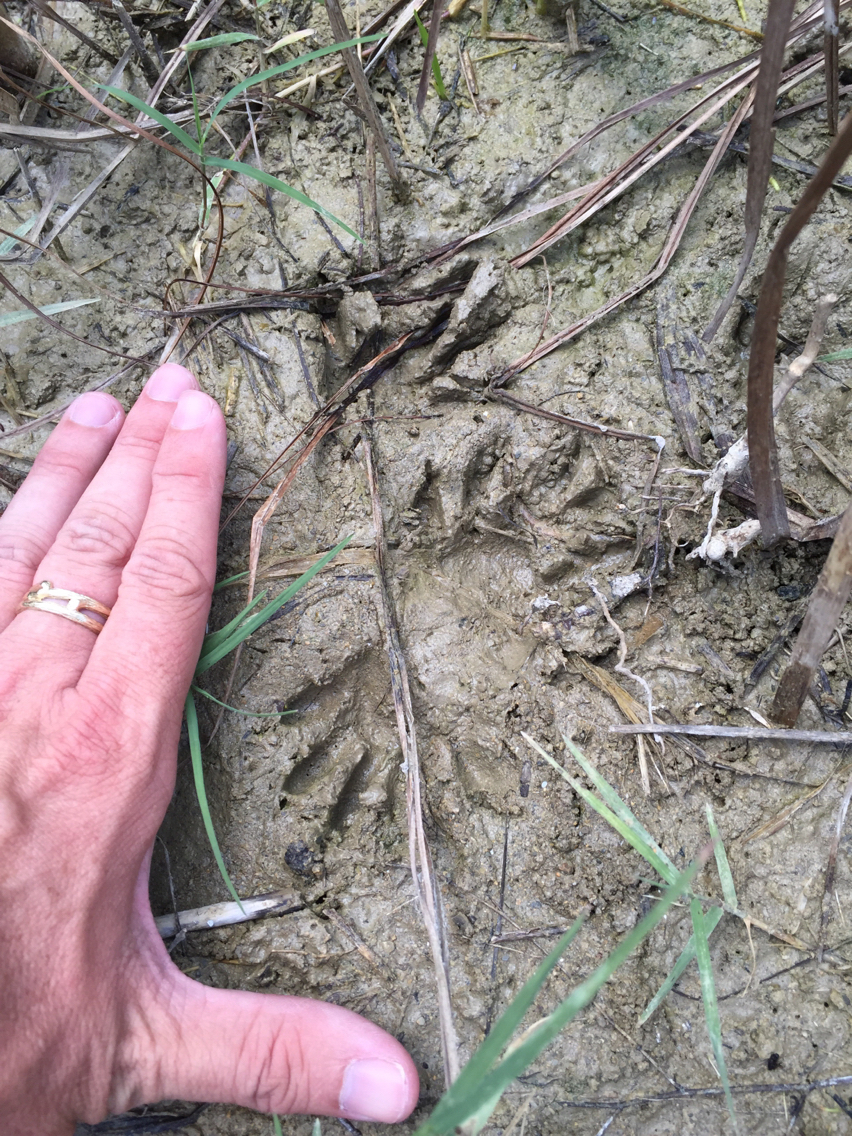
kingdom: Animalia
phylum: Chordata
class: Mammalia
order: Carnivora
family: Procyonidae
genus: Procyon
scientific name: Procyon lotor
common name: Raccoon
